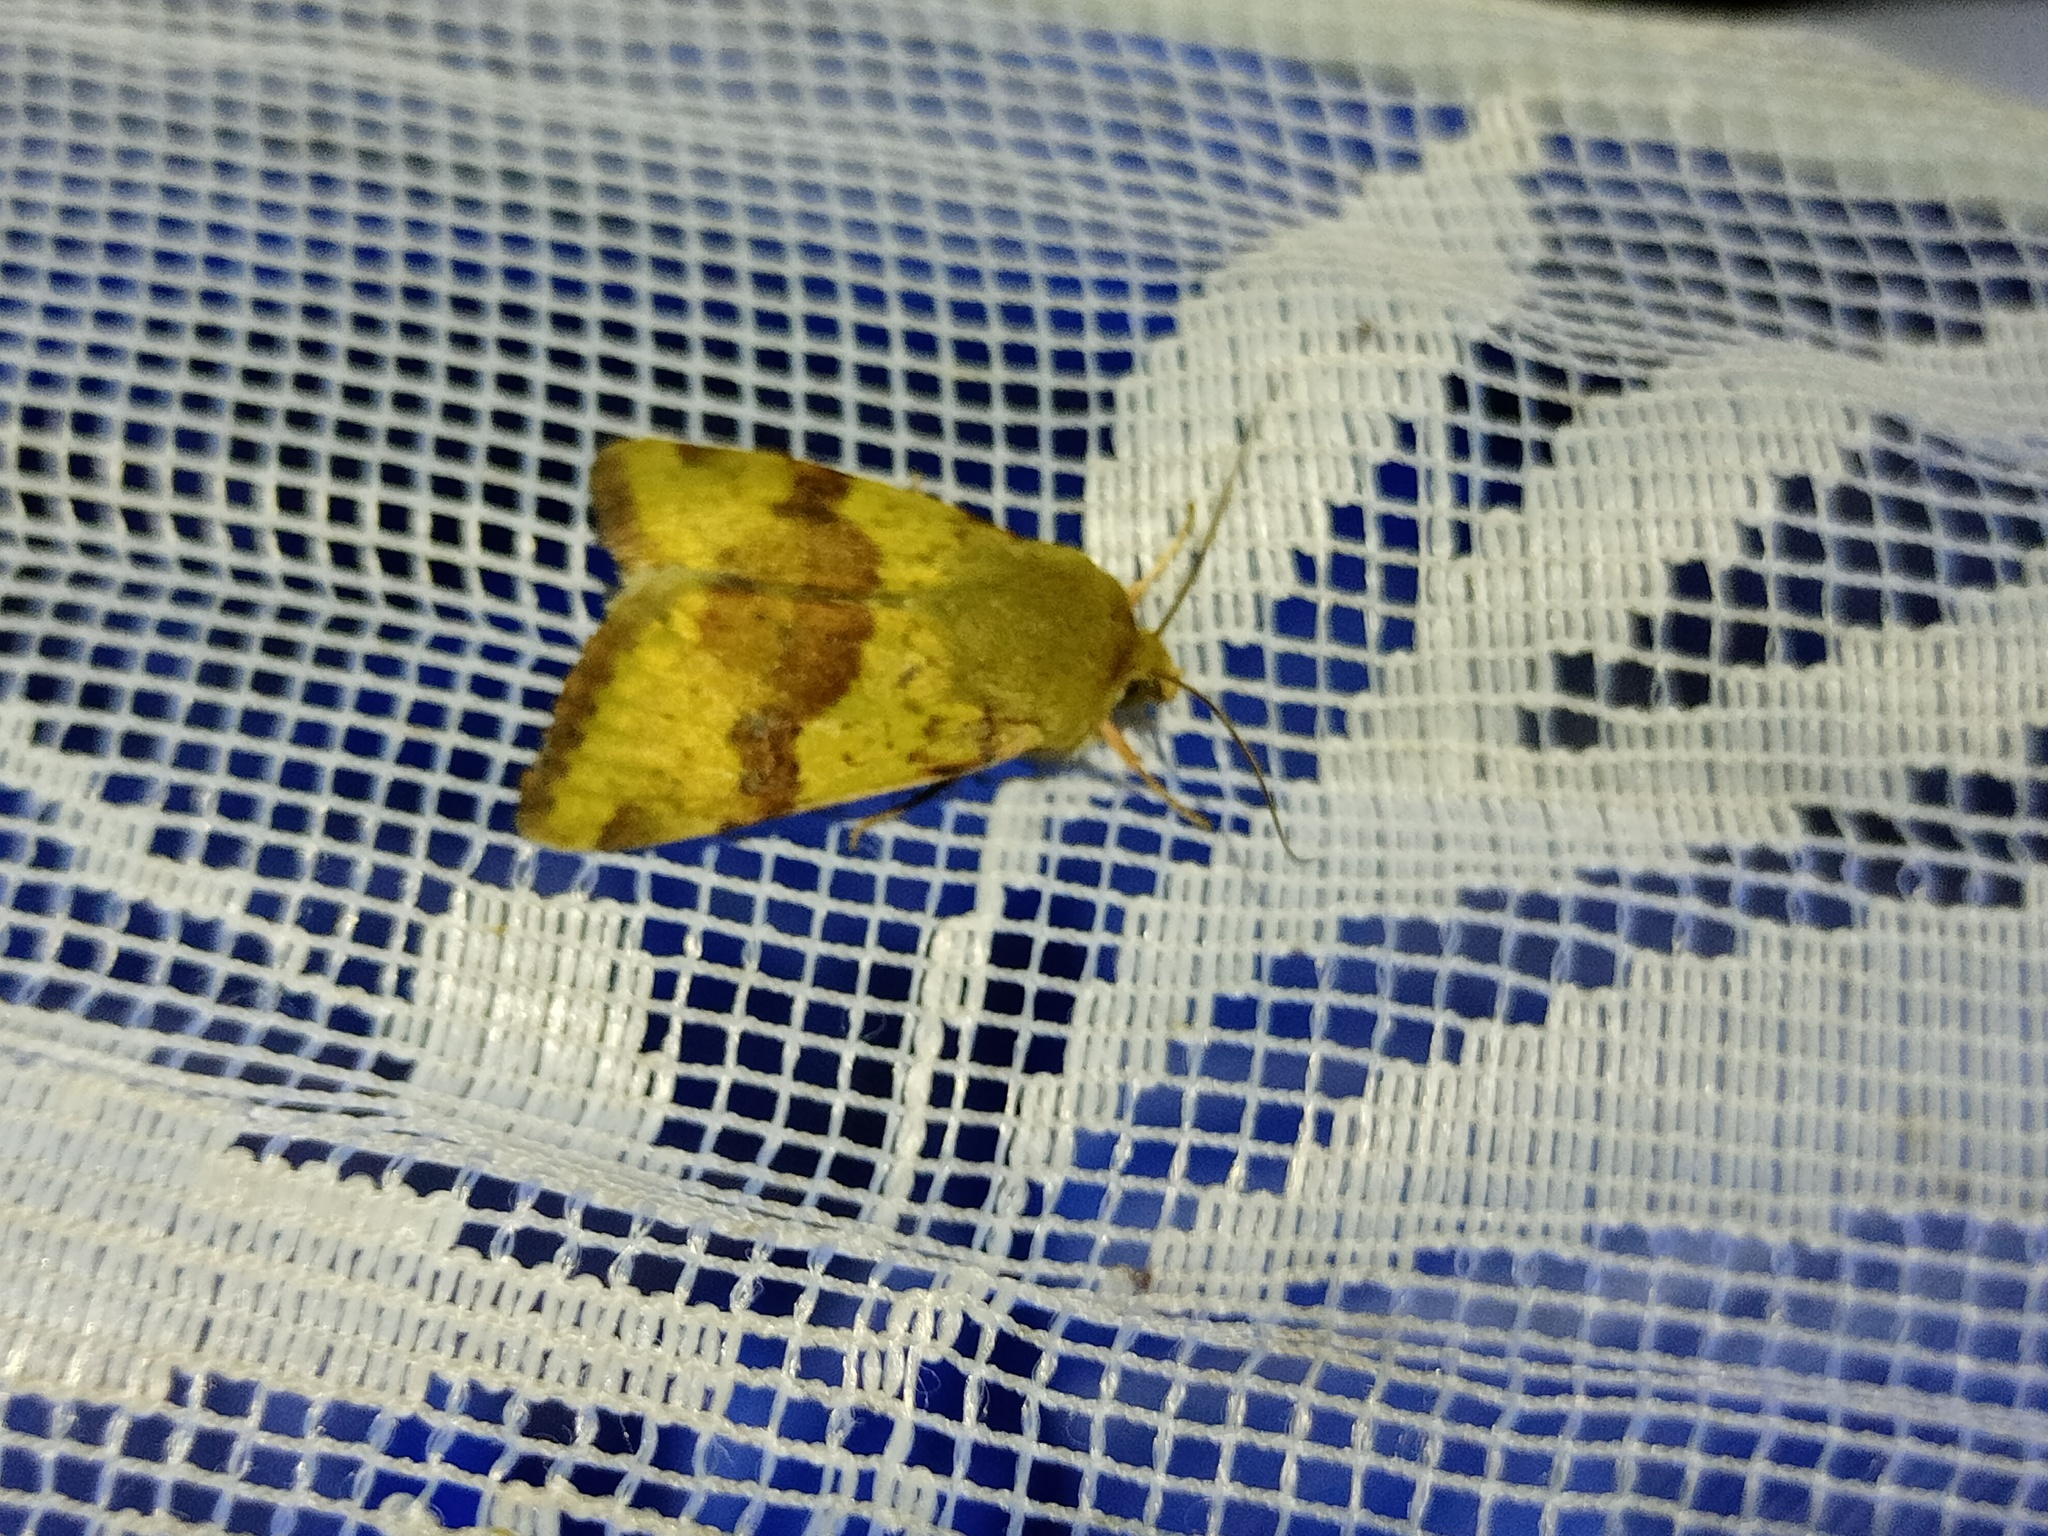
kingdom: Animalia
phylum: Arthropoda
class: Insecta
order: Lepidoptera
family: Noctuidae
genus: Heliothis
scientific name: Heliothis viriplaca
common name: Marbled clover
